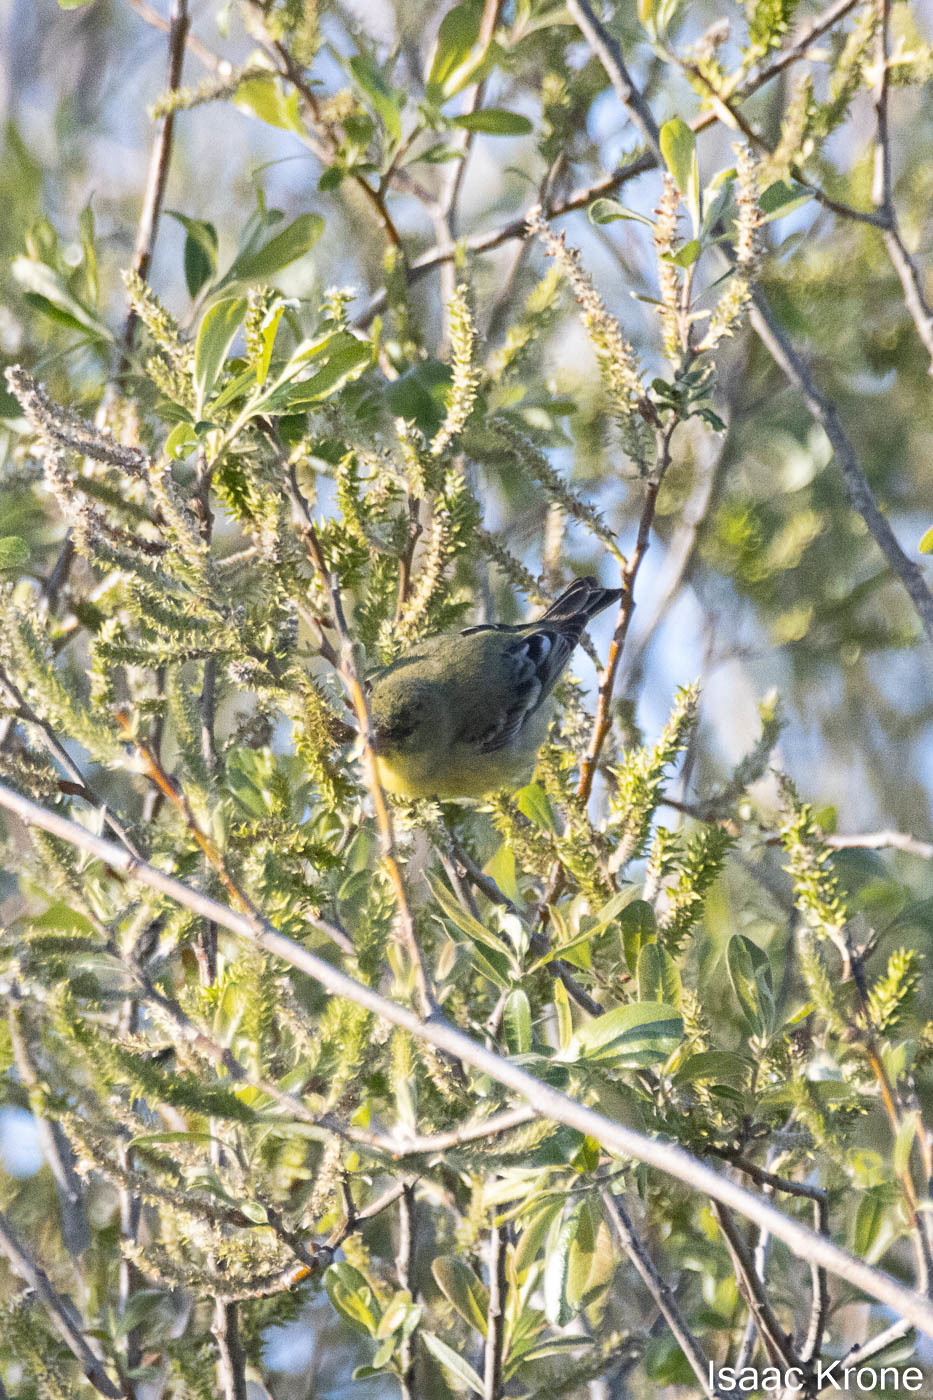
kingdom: Animalia
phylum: Chordata
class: Aves
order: Passeriformes
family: Fringillidae
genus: Spinus
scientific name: Spinus psaltria
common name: Lesser goldfinch
